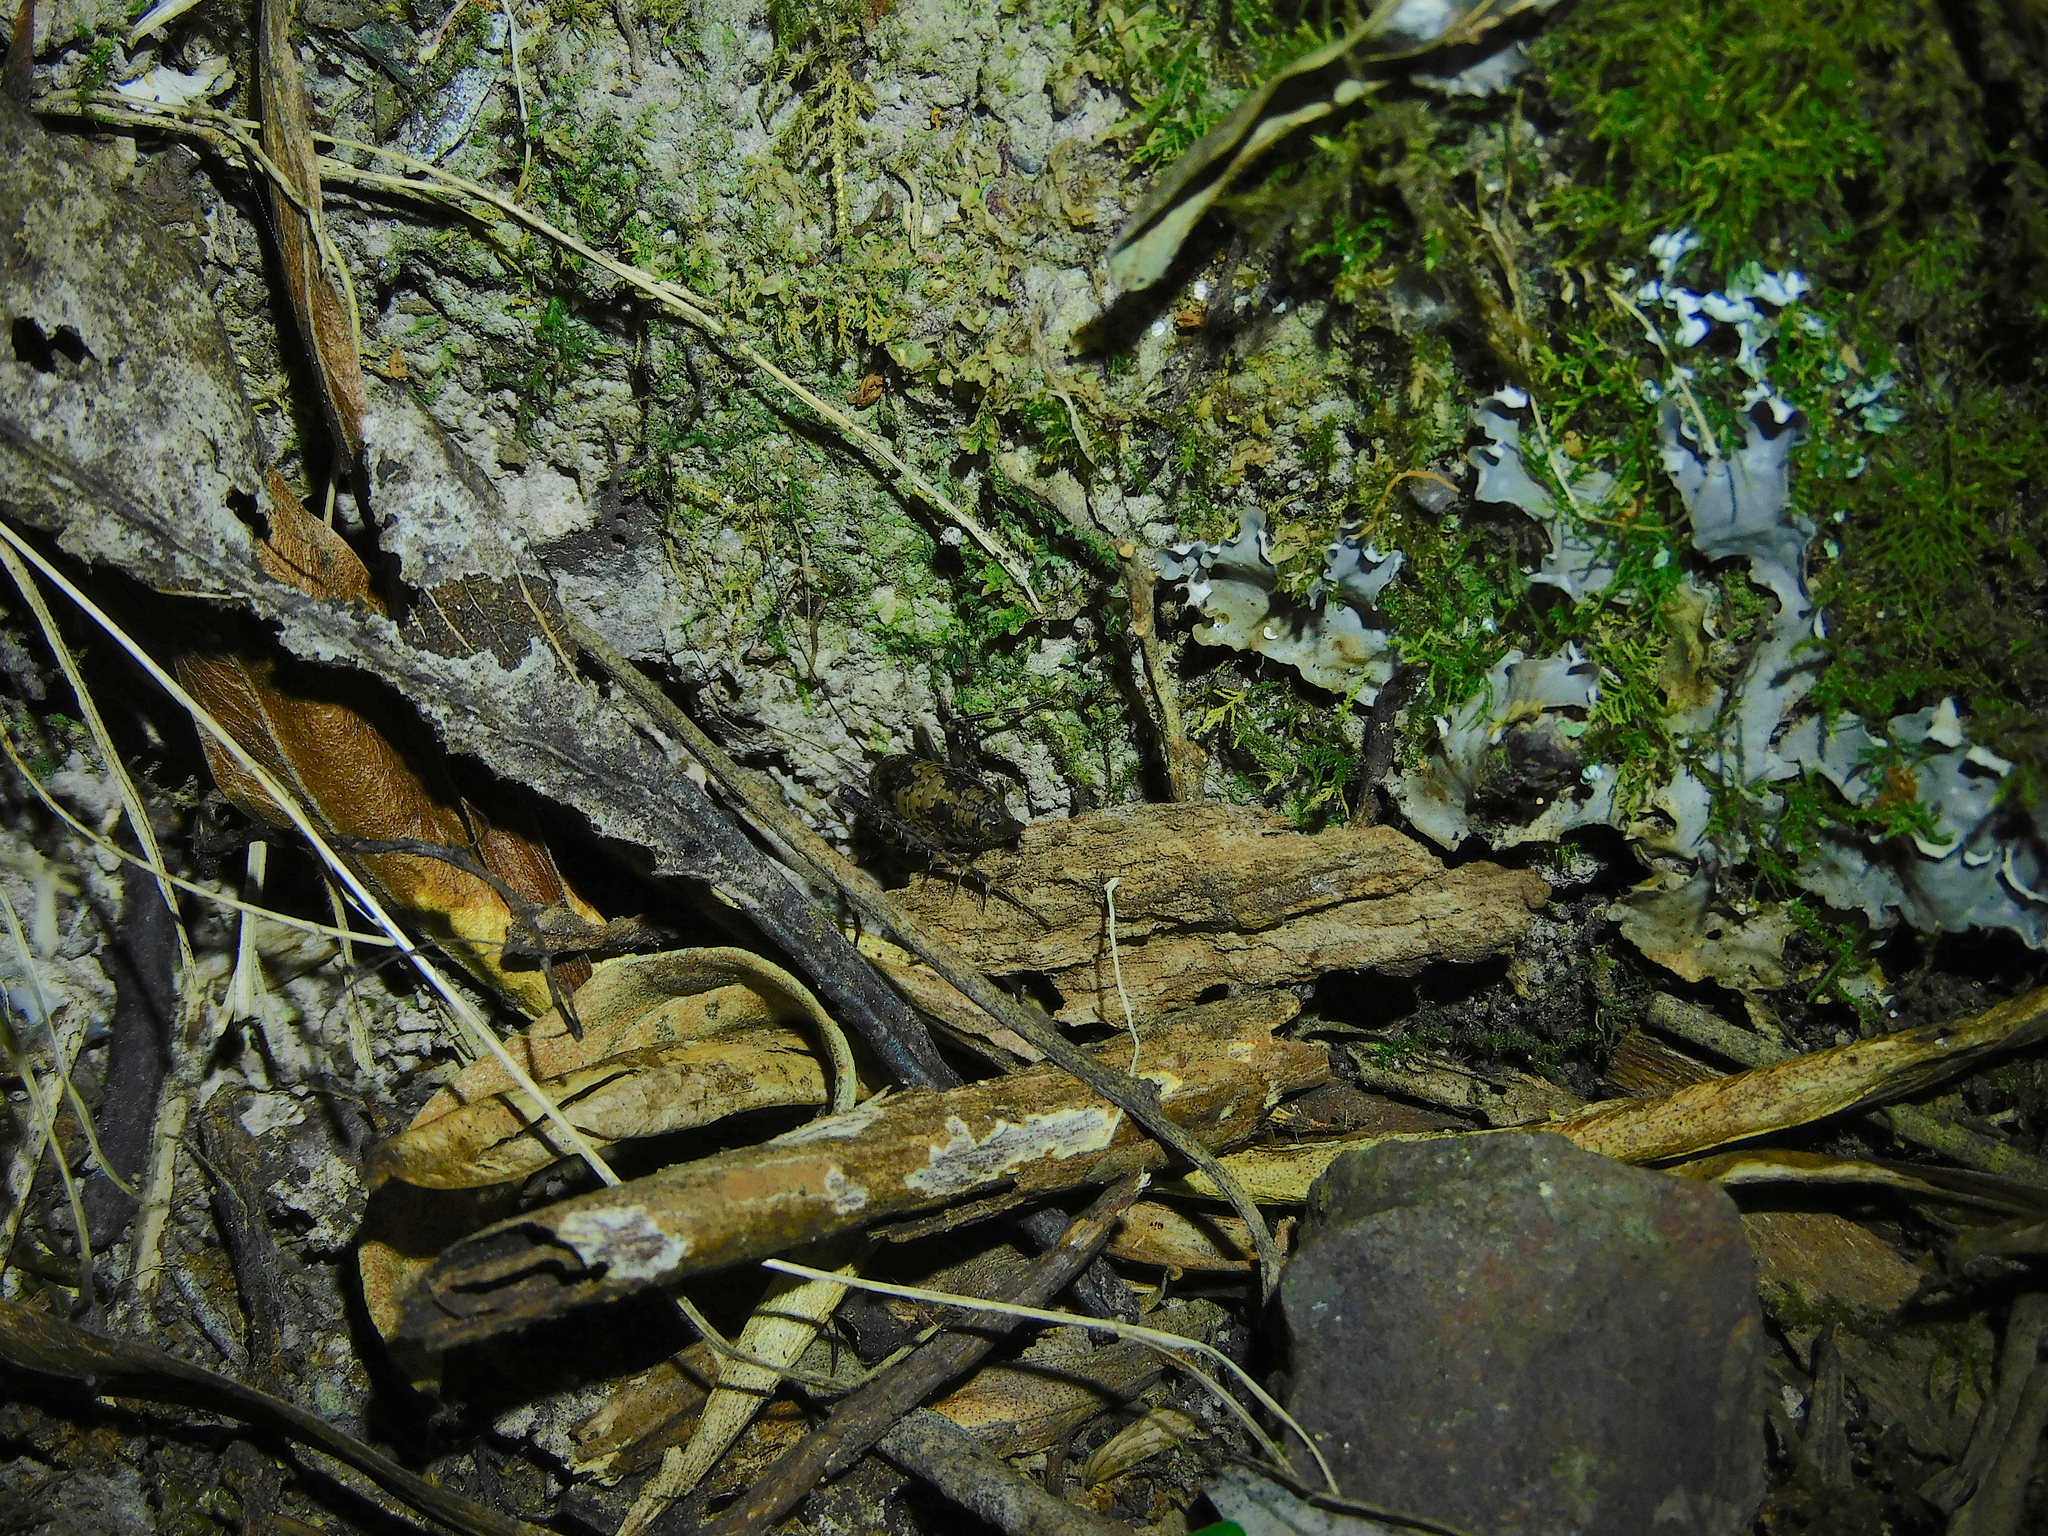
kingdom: Animalia
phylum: Arthropoda
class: Insecta
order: Orthoptera
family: Rhaphidophoridae
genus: Parvotettix
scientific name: Parvotettix domesticus
